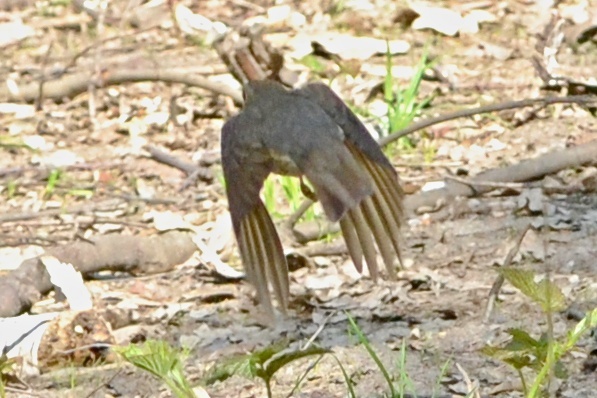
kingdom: Animalia
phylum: Chordata
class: Aves
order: Passeriformes
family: Turdidae
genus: Turdus
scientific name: Turdus philomelos
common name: Song thrush
